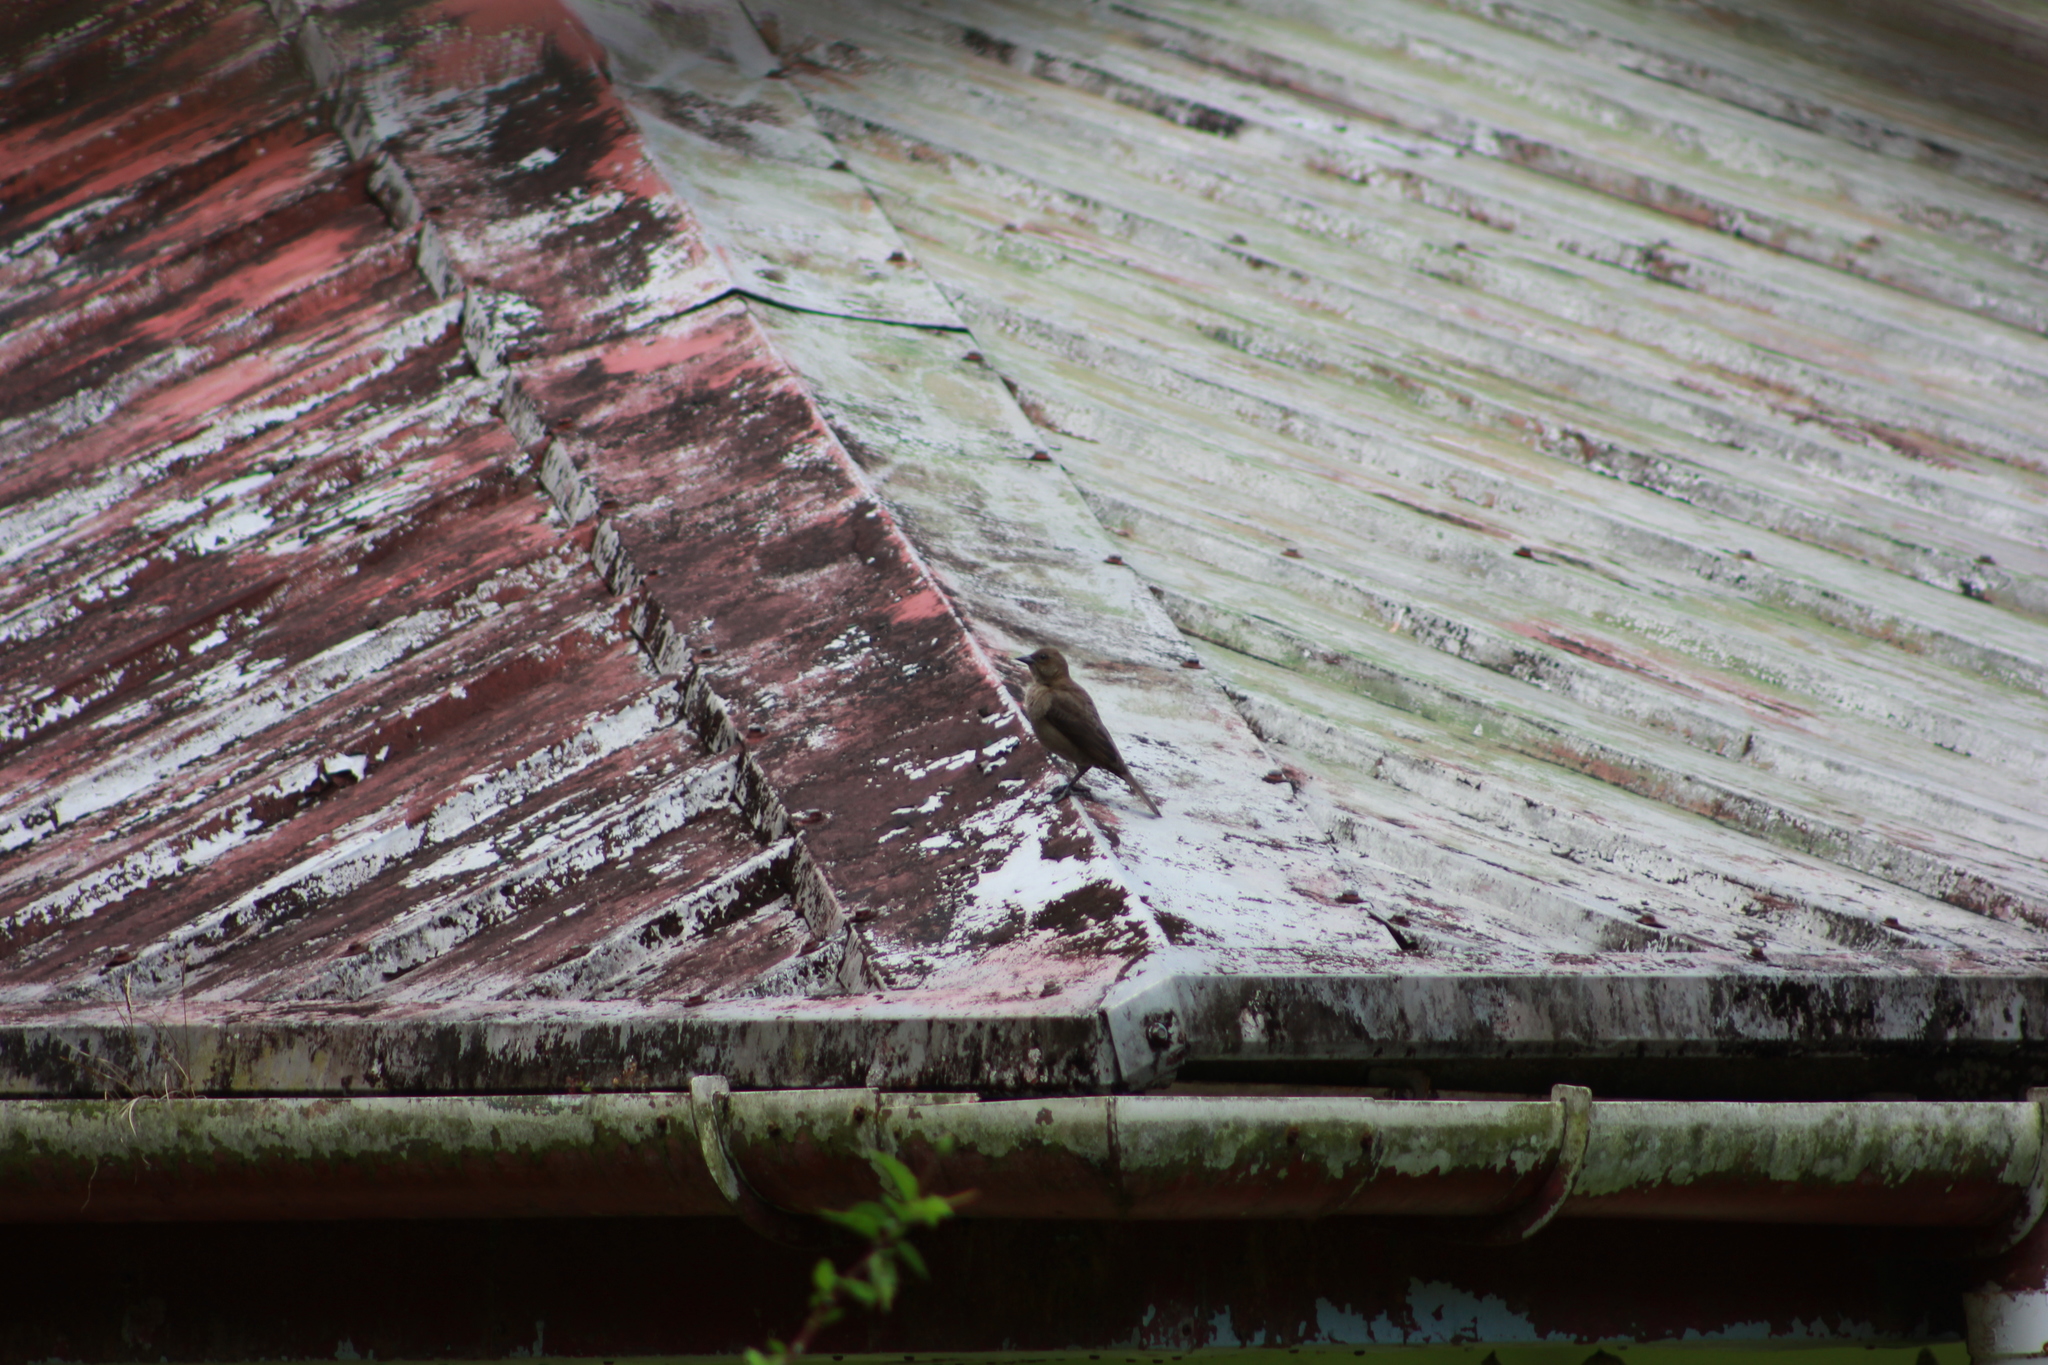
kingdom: Animalia
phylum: Chordata
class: Aves
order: Passeriformes
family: Icteridae
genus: Molothrus
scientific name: Molothrus bonariensis
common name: Shiny cowbird
